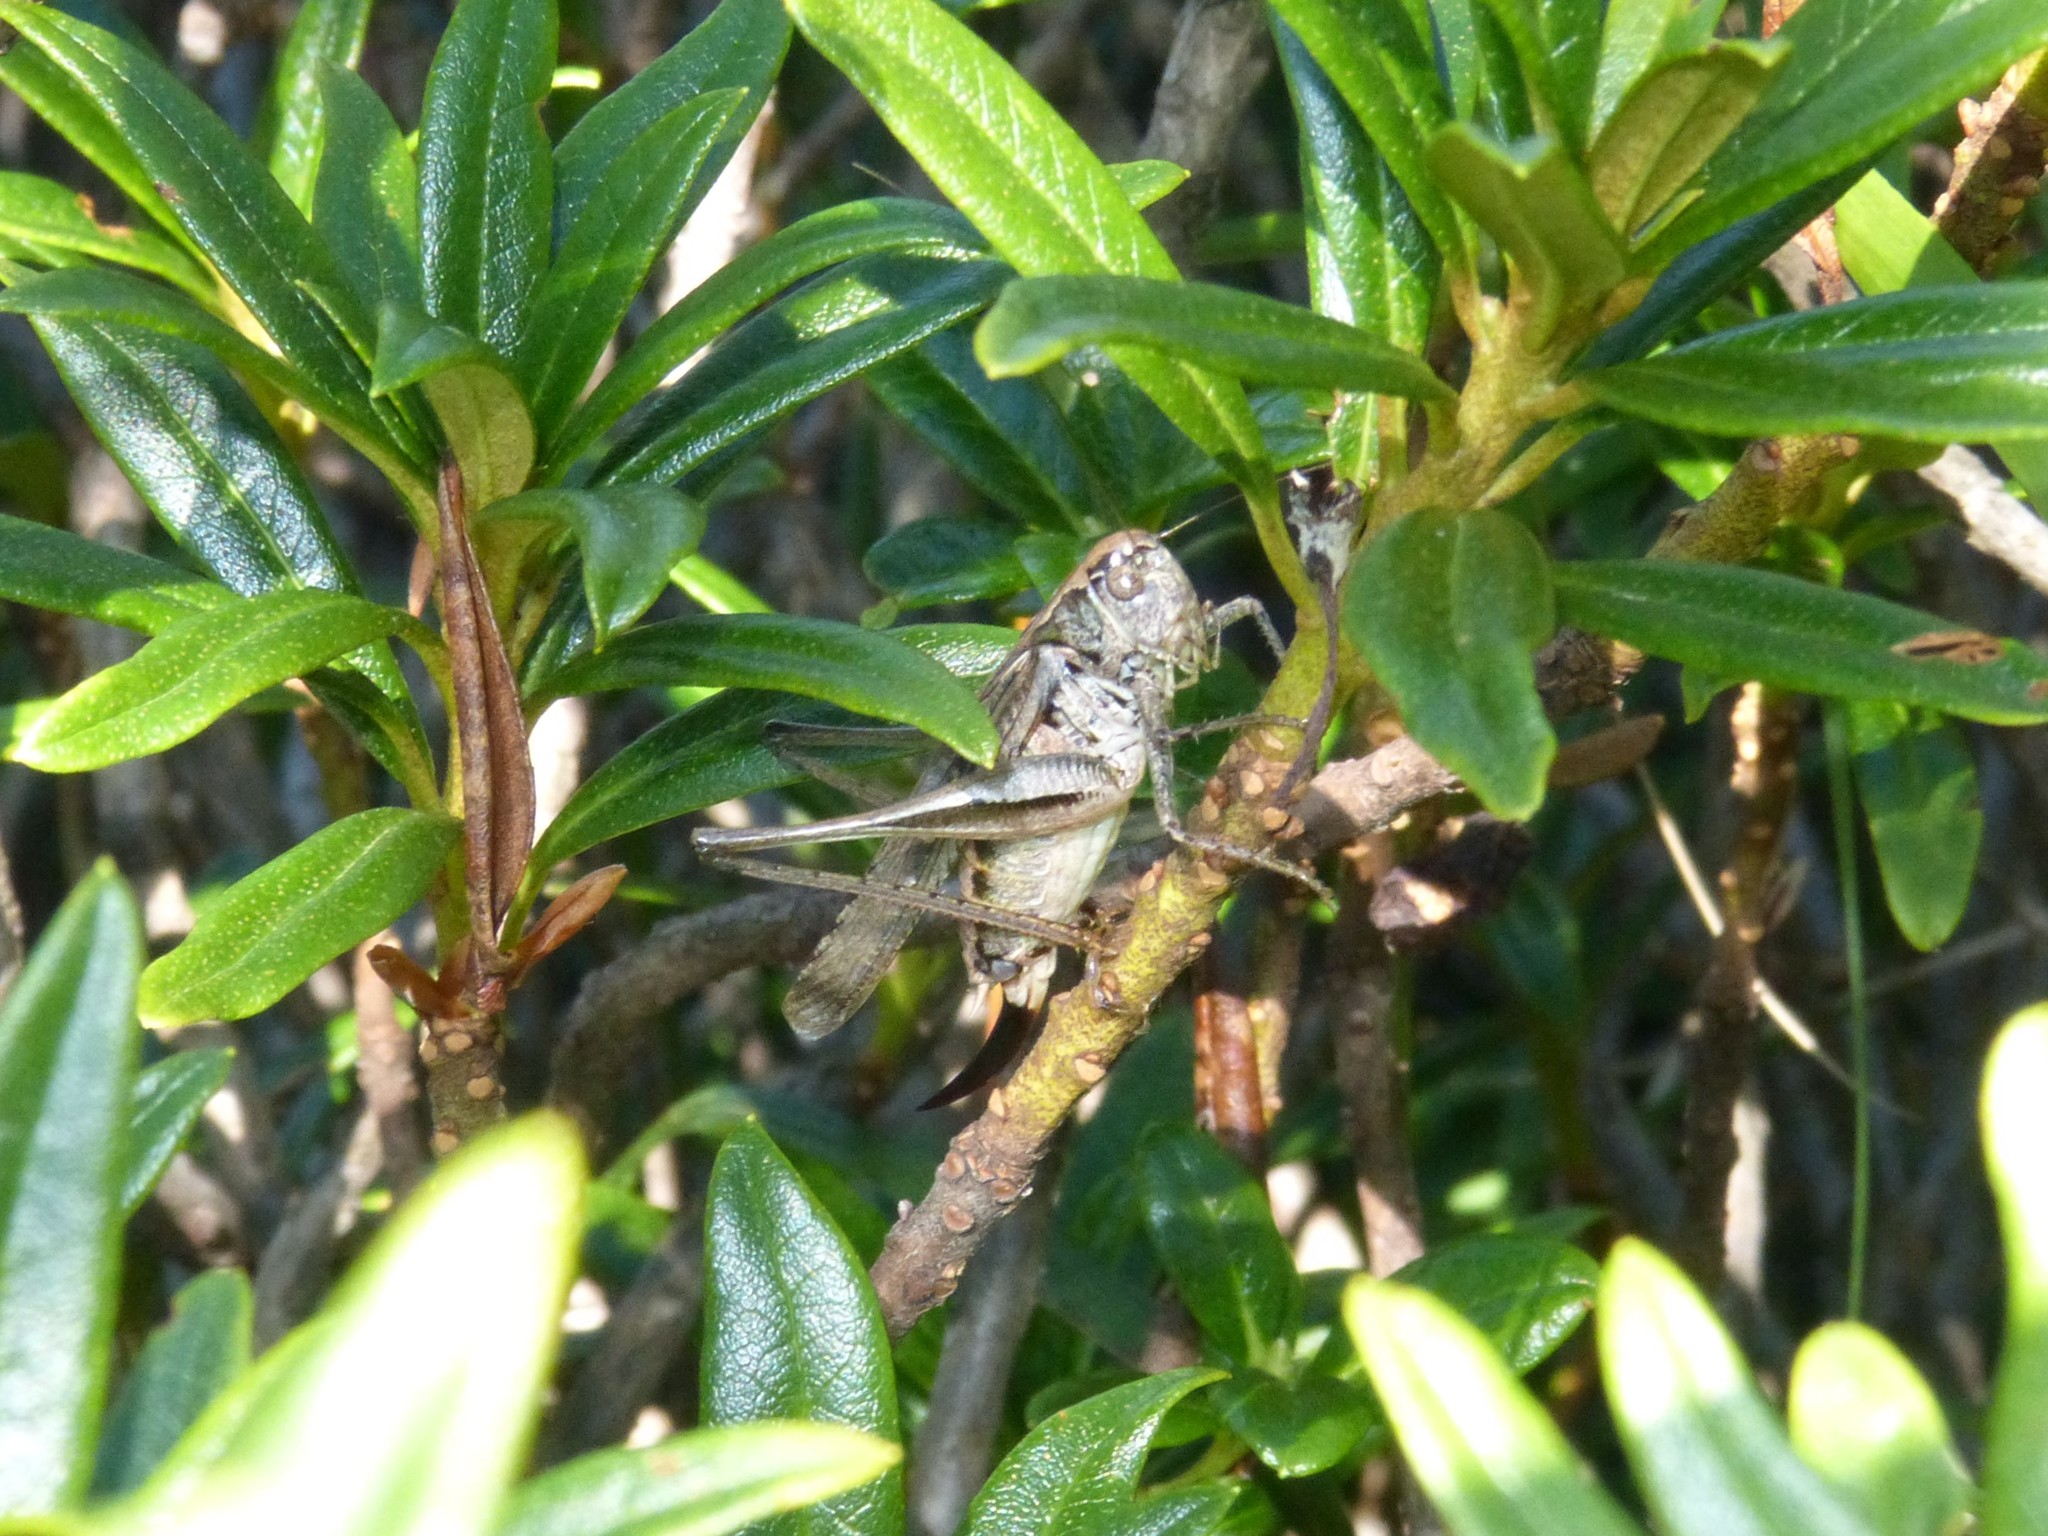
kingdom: Animalia
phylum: Arthropoda
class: Insecta
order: Orthoptera
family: Tettigoniidae
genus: Platycleis
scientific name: Platycleis grisea
